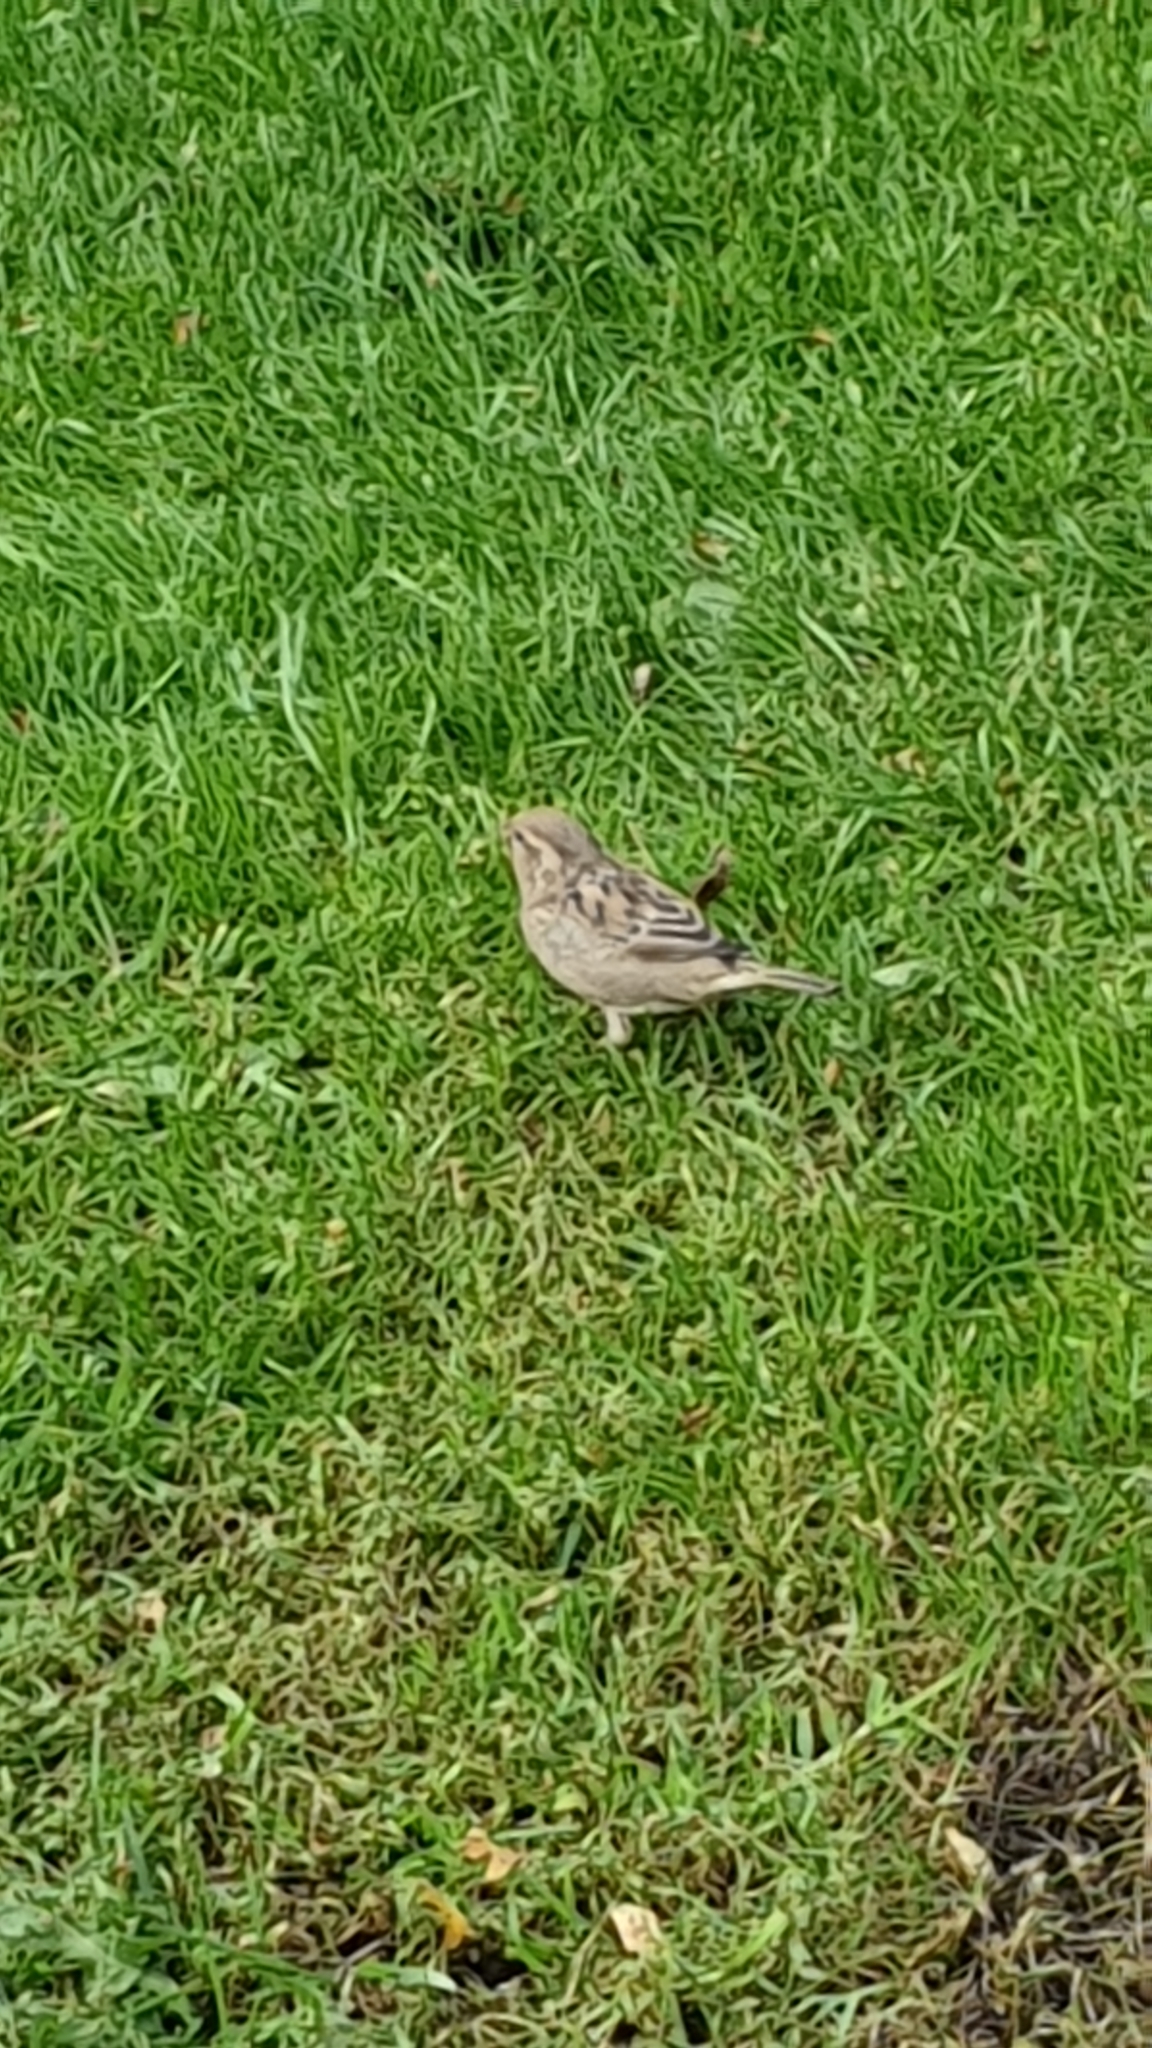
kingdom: Animalia
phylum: Chordata
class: Aves
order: Passeriformes
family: Passeridae
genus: Passer
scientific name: Passer domesticus
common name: House sparrow
